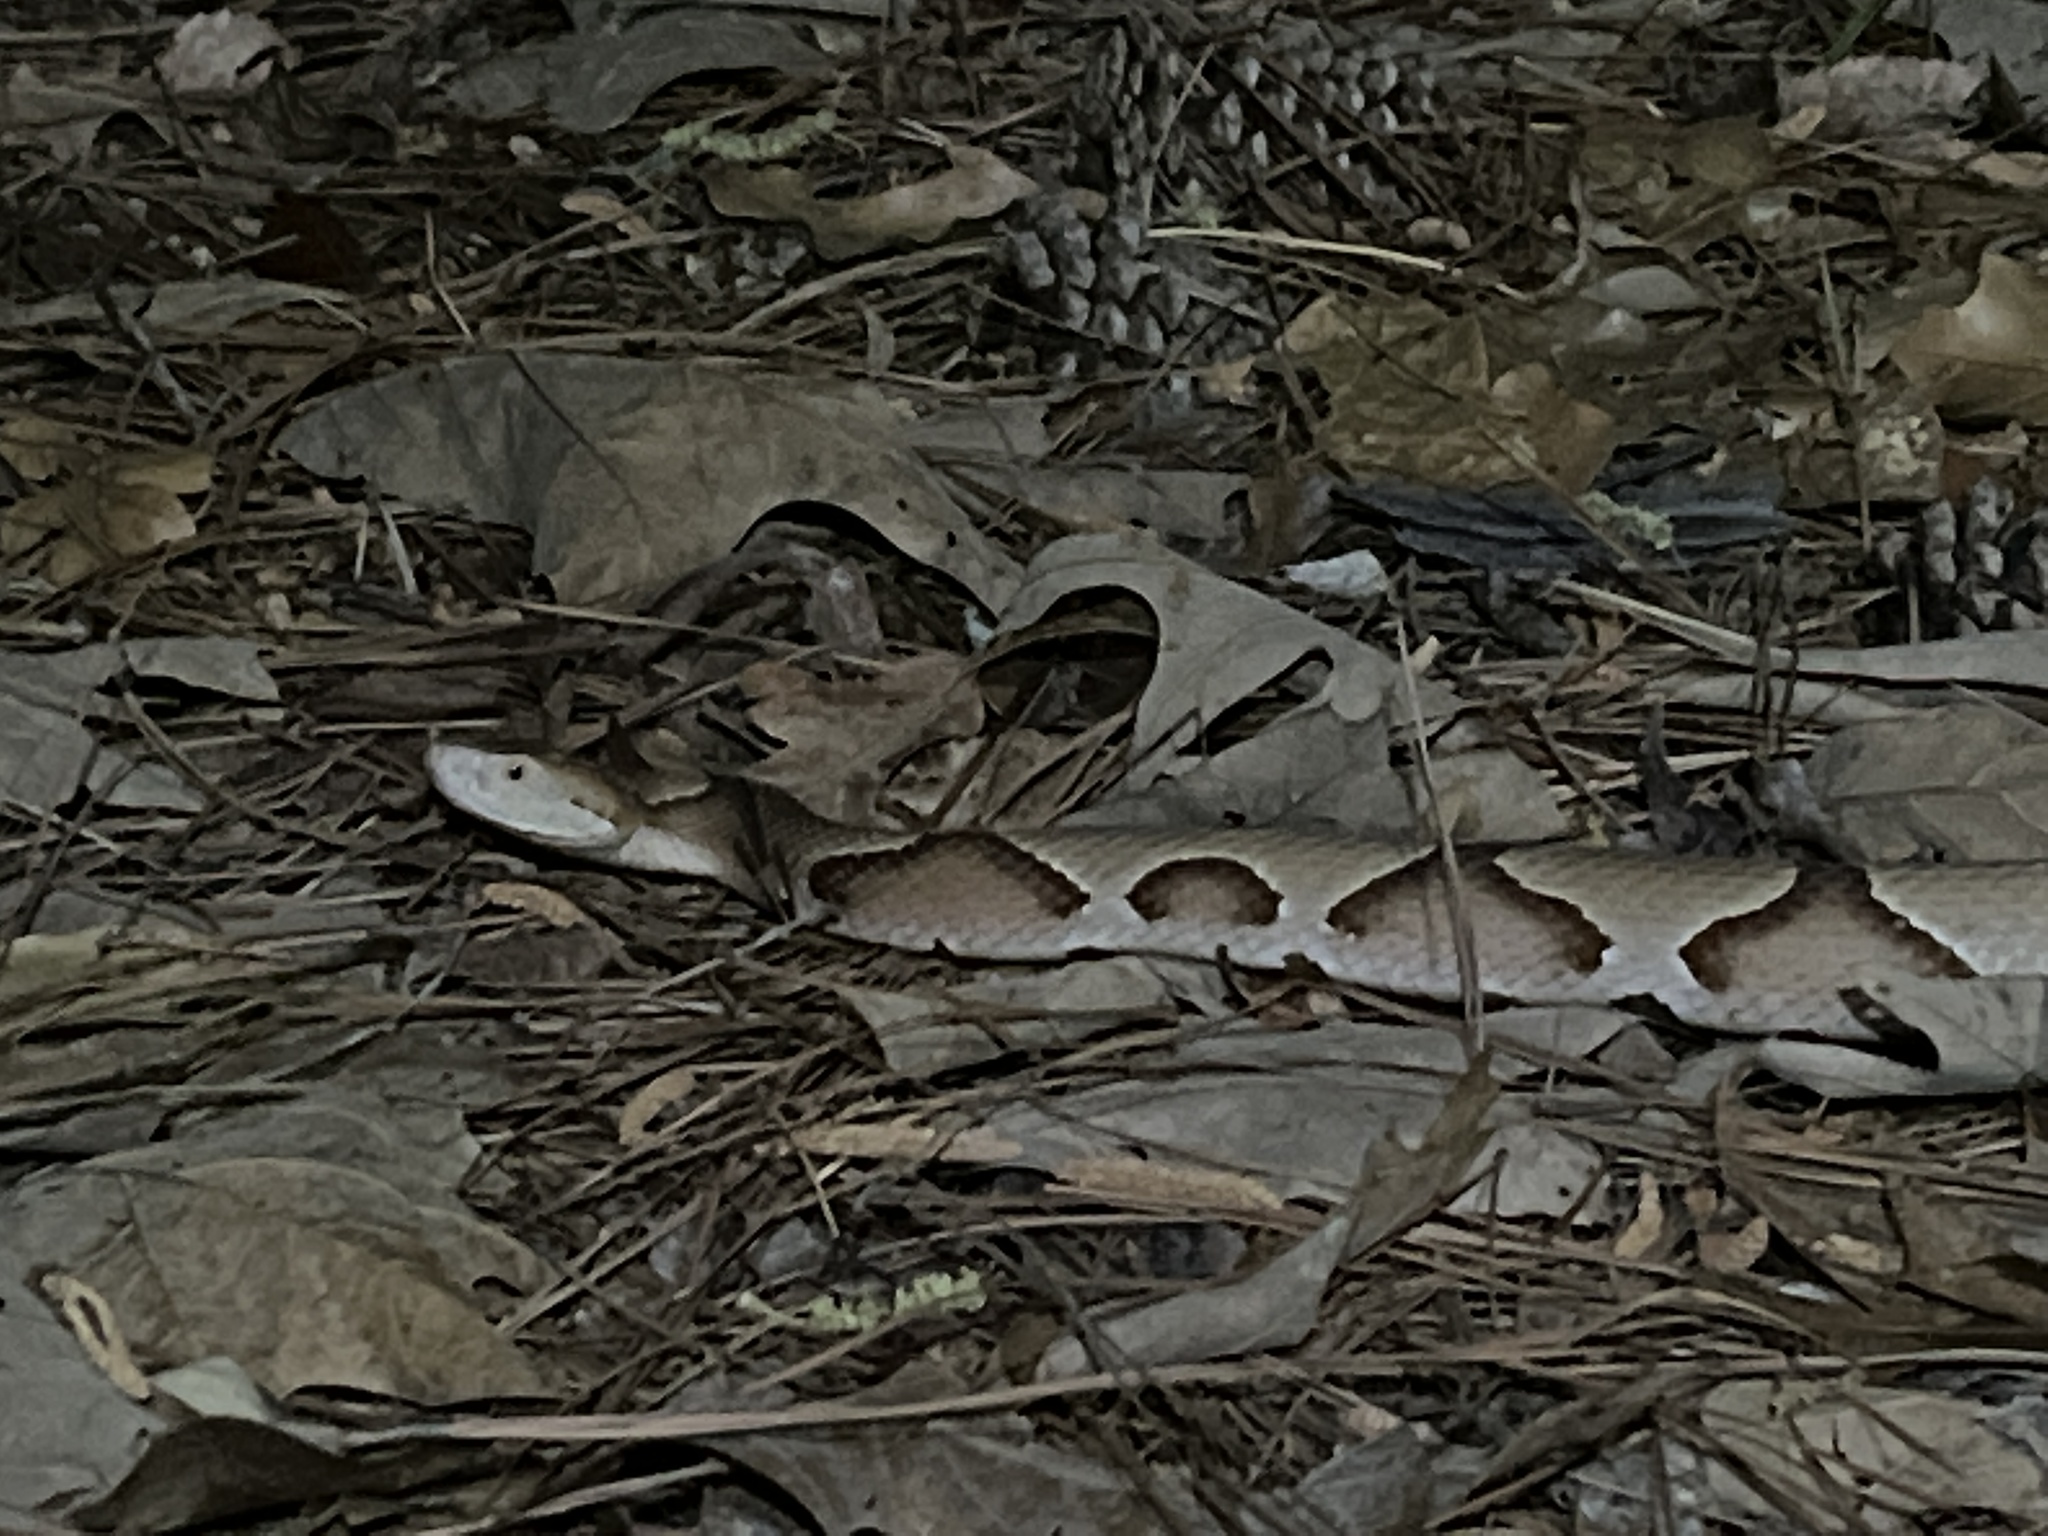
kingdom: Animalia
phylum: Chordata
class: Squamata
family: Viperidae
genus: Agkistrodon
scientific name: Agkistrodon contortrix
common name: Northern copperhead
